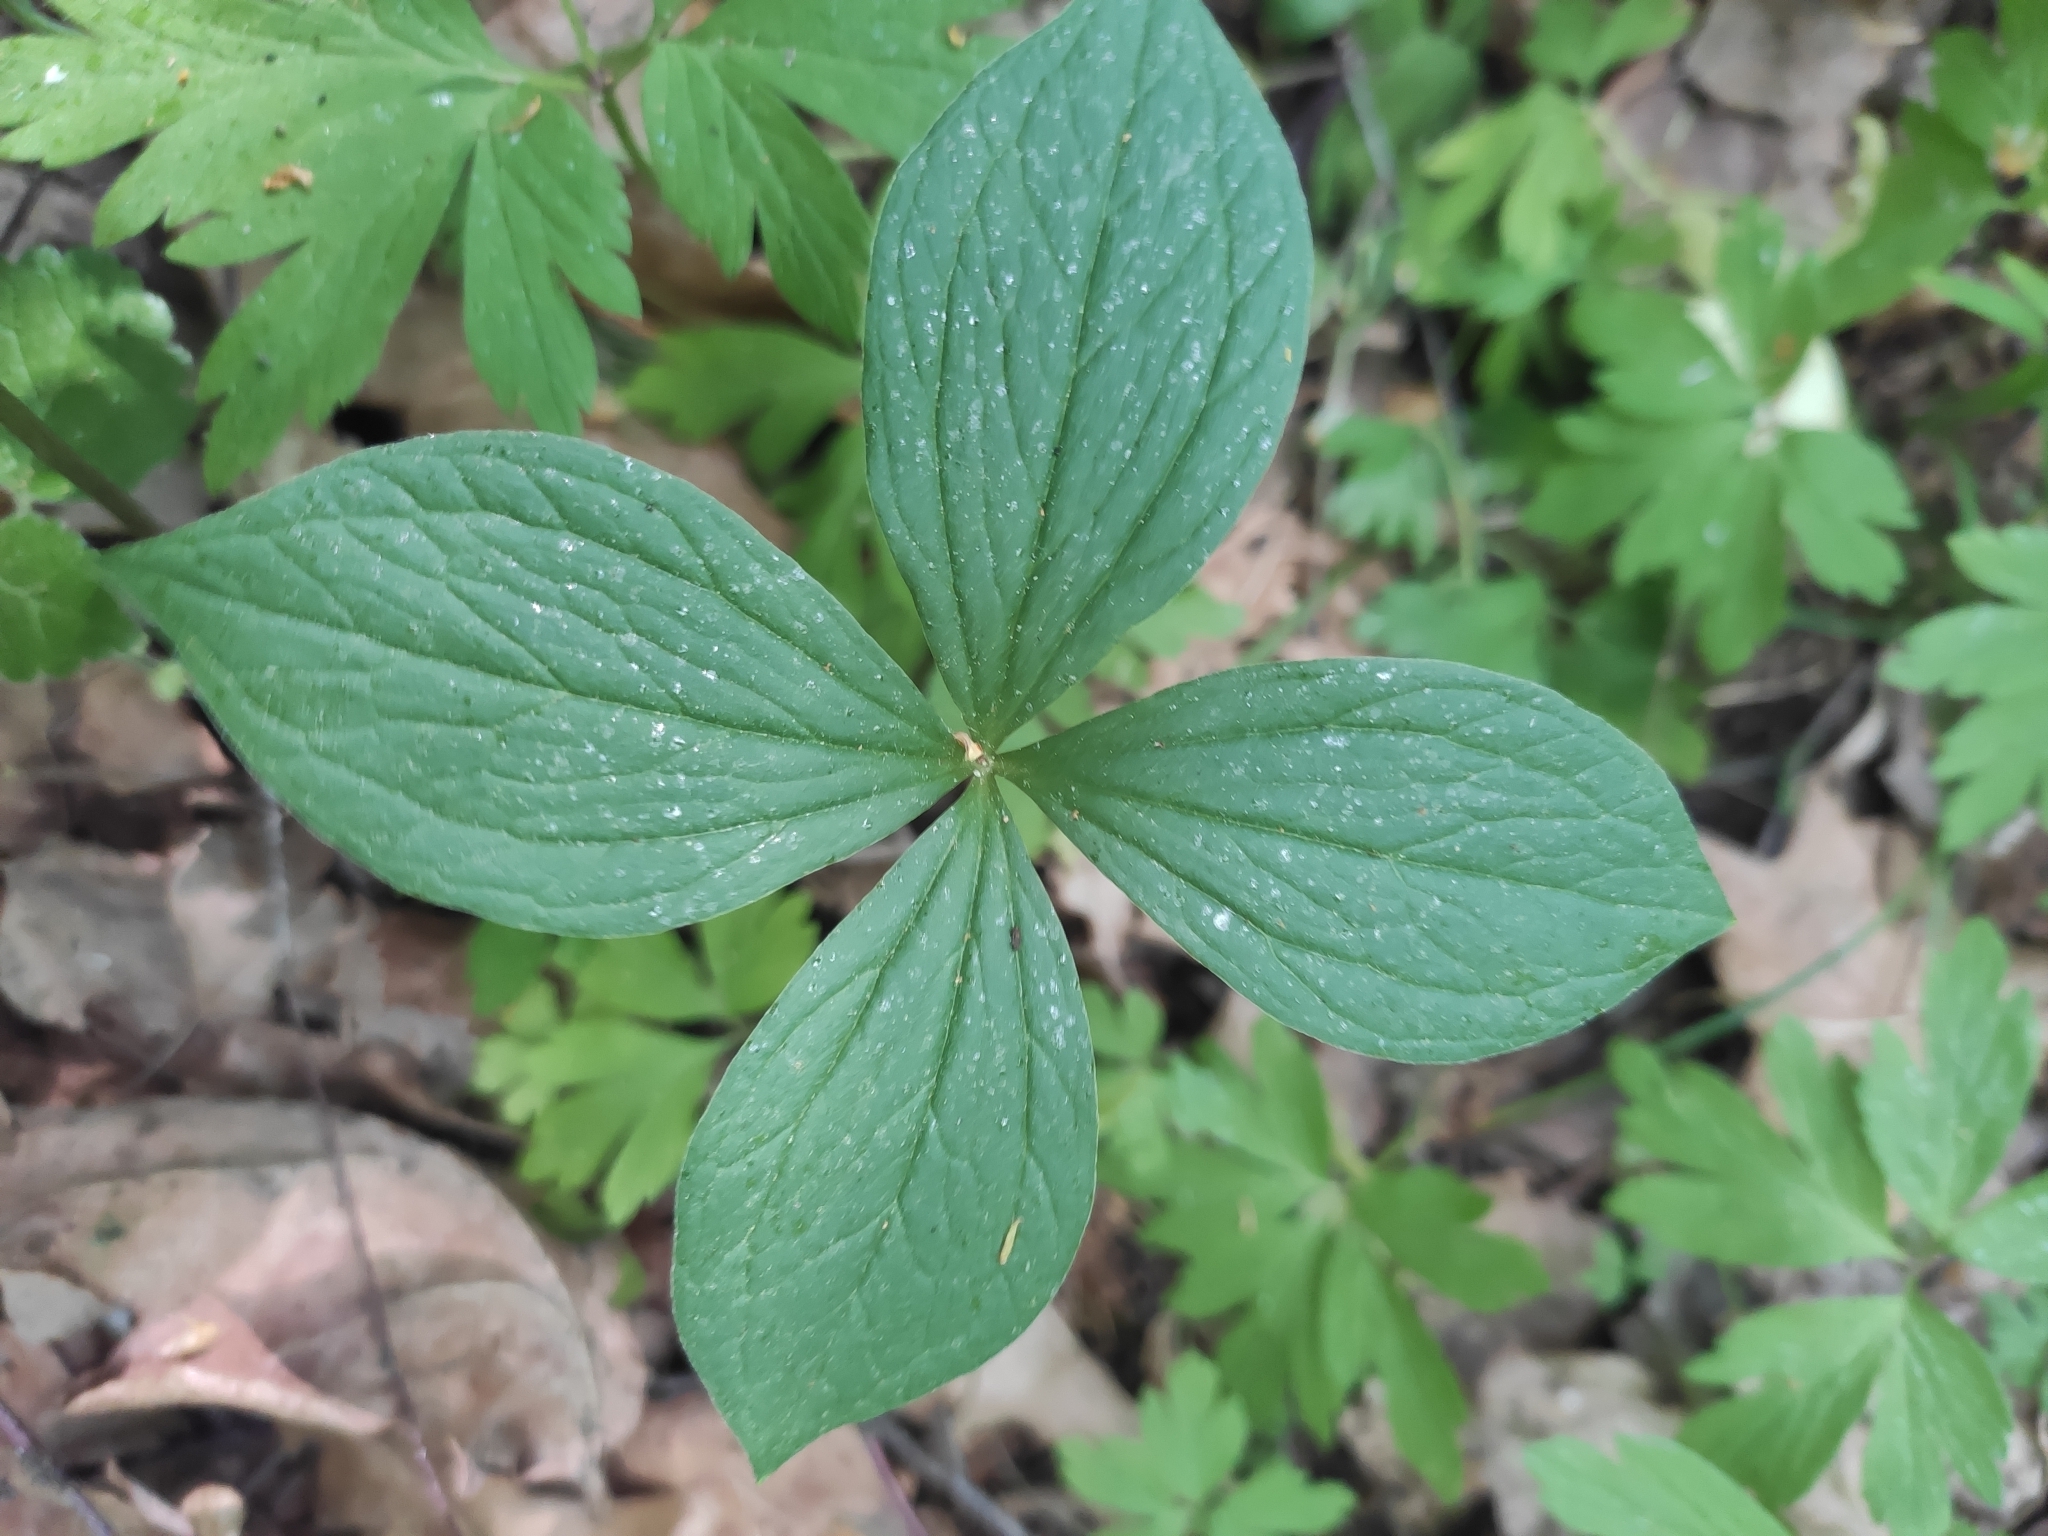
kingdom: Plantae
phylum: Tracheophyta
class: Liliopsida
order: Liliales
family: Melanthiaceae
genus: Paris
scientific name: Paris quadrifolia
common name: Herb-paris
